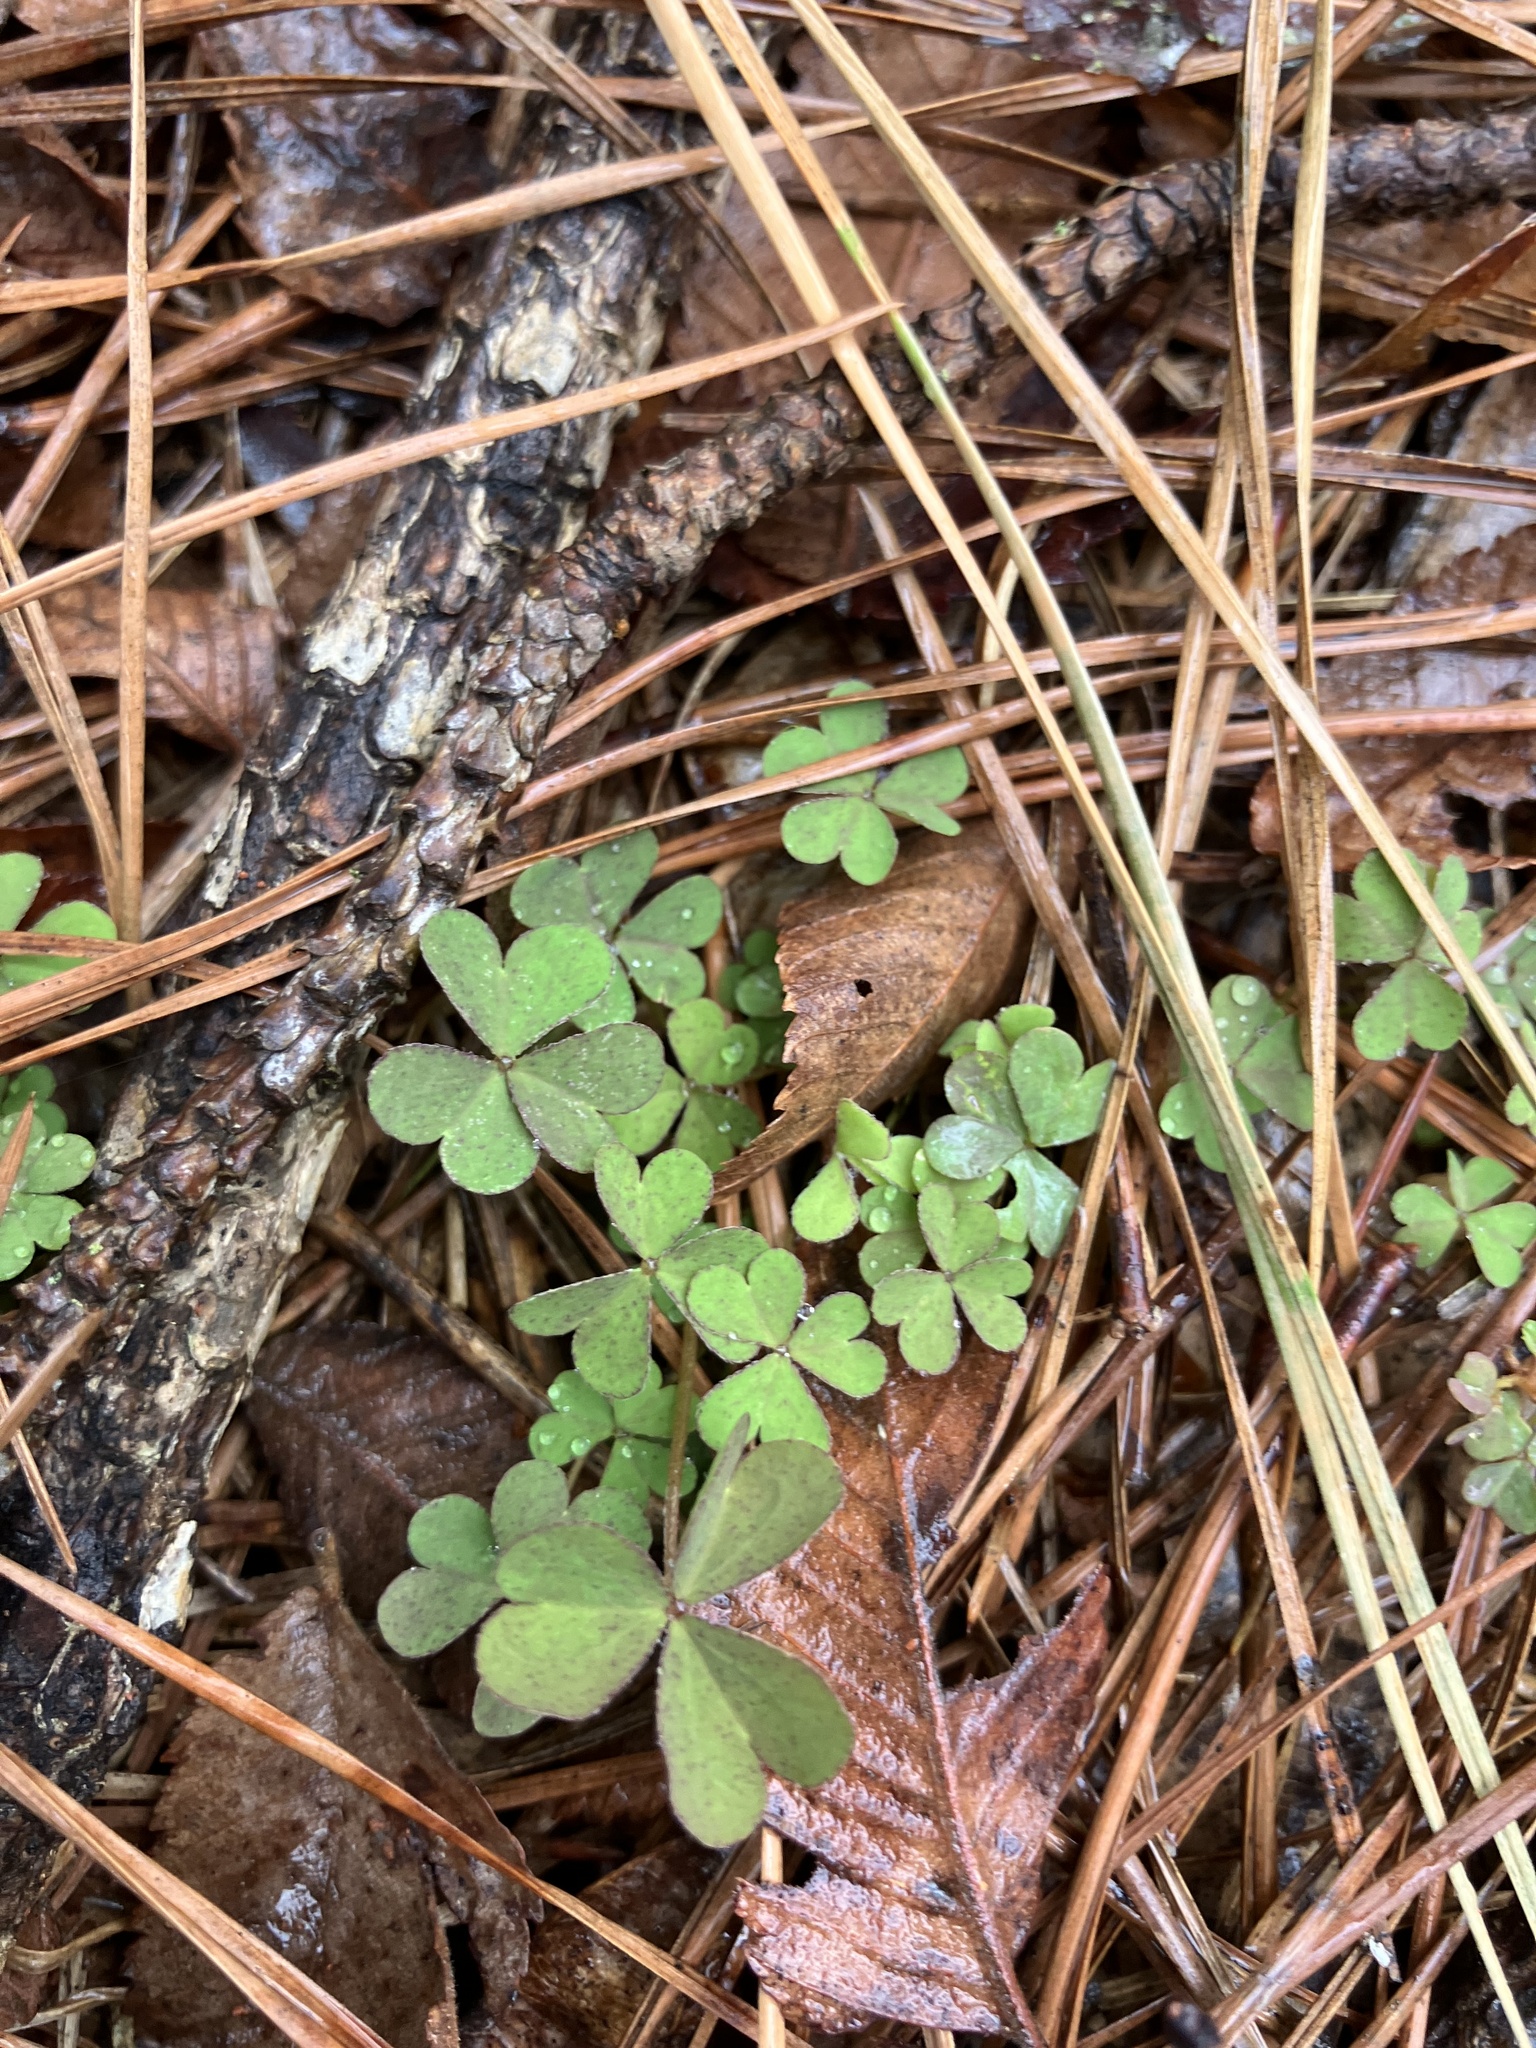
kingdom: Plantae
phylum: Tracheophyta
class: Magnoliopsida
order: Oxalidales
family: Oxalidaceae
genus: Oxalis
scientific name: Oxalis articulata
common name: Pink-sorrel
